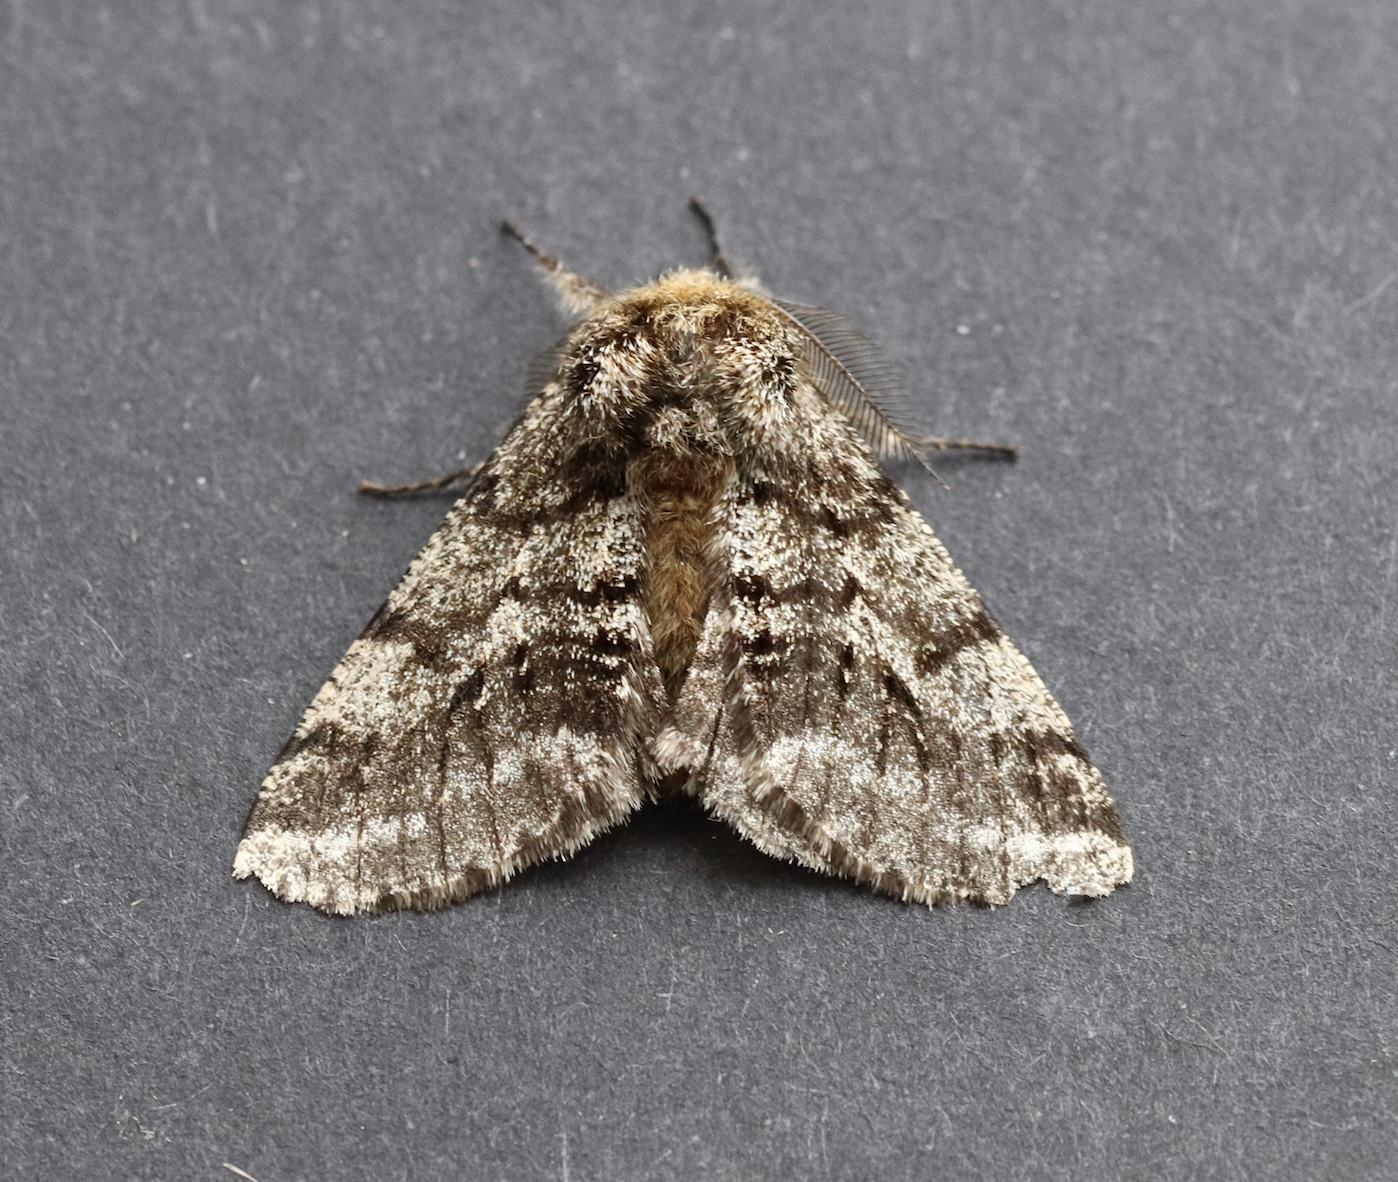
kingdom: Animalia
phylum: Arthropoda
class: Insecta
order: Lepidoptera
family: Geometridae
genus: Lycia
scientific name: Lycia hirtaria
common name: Brindled beauty
